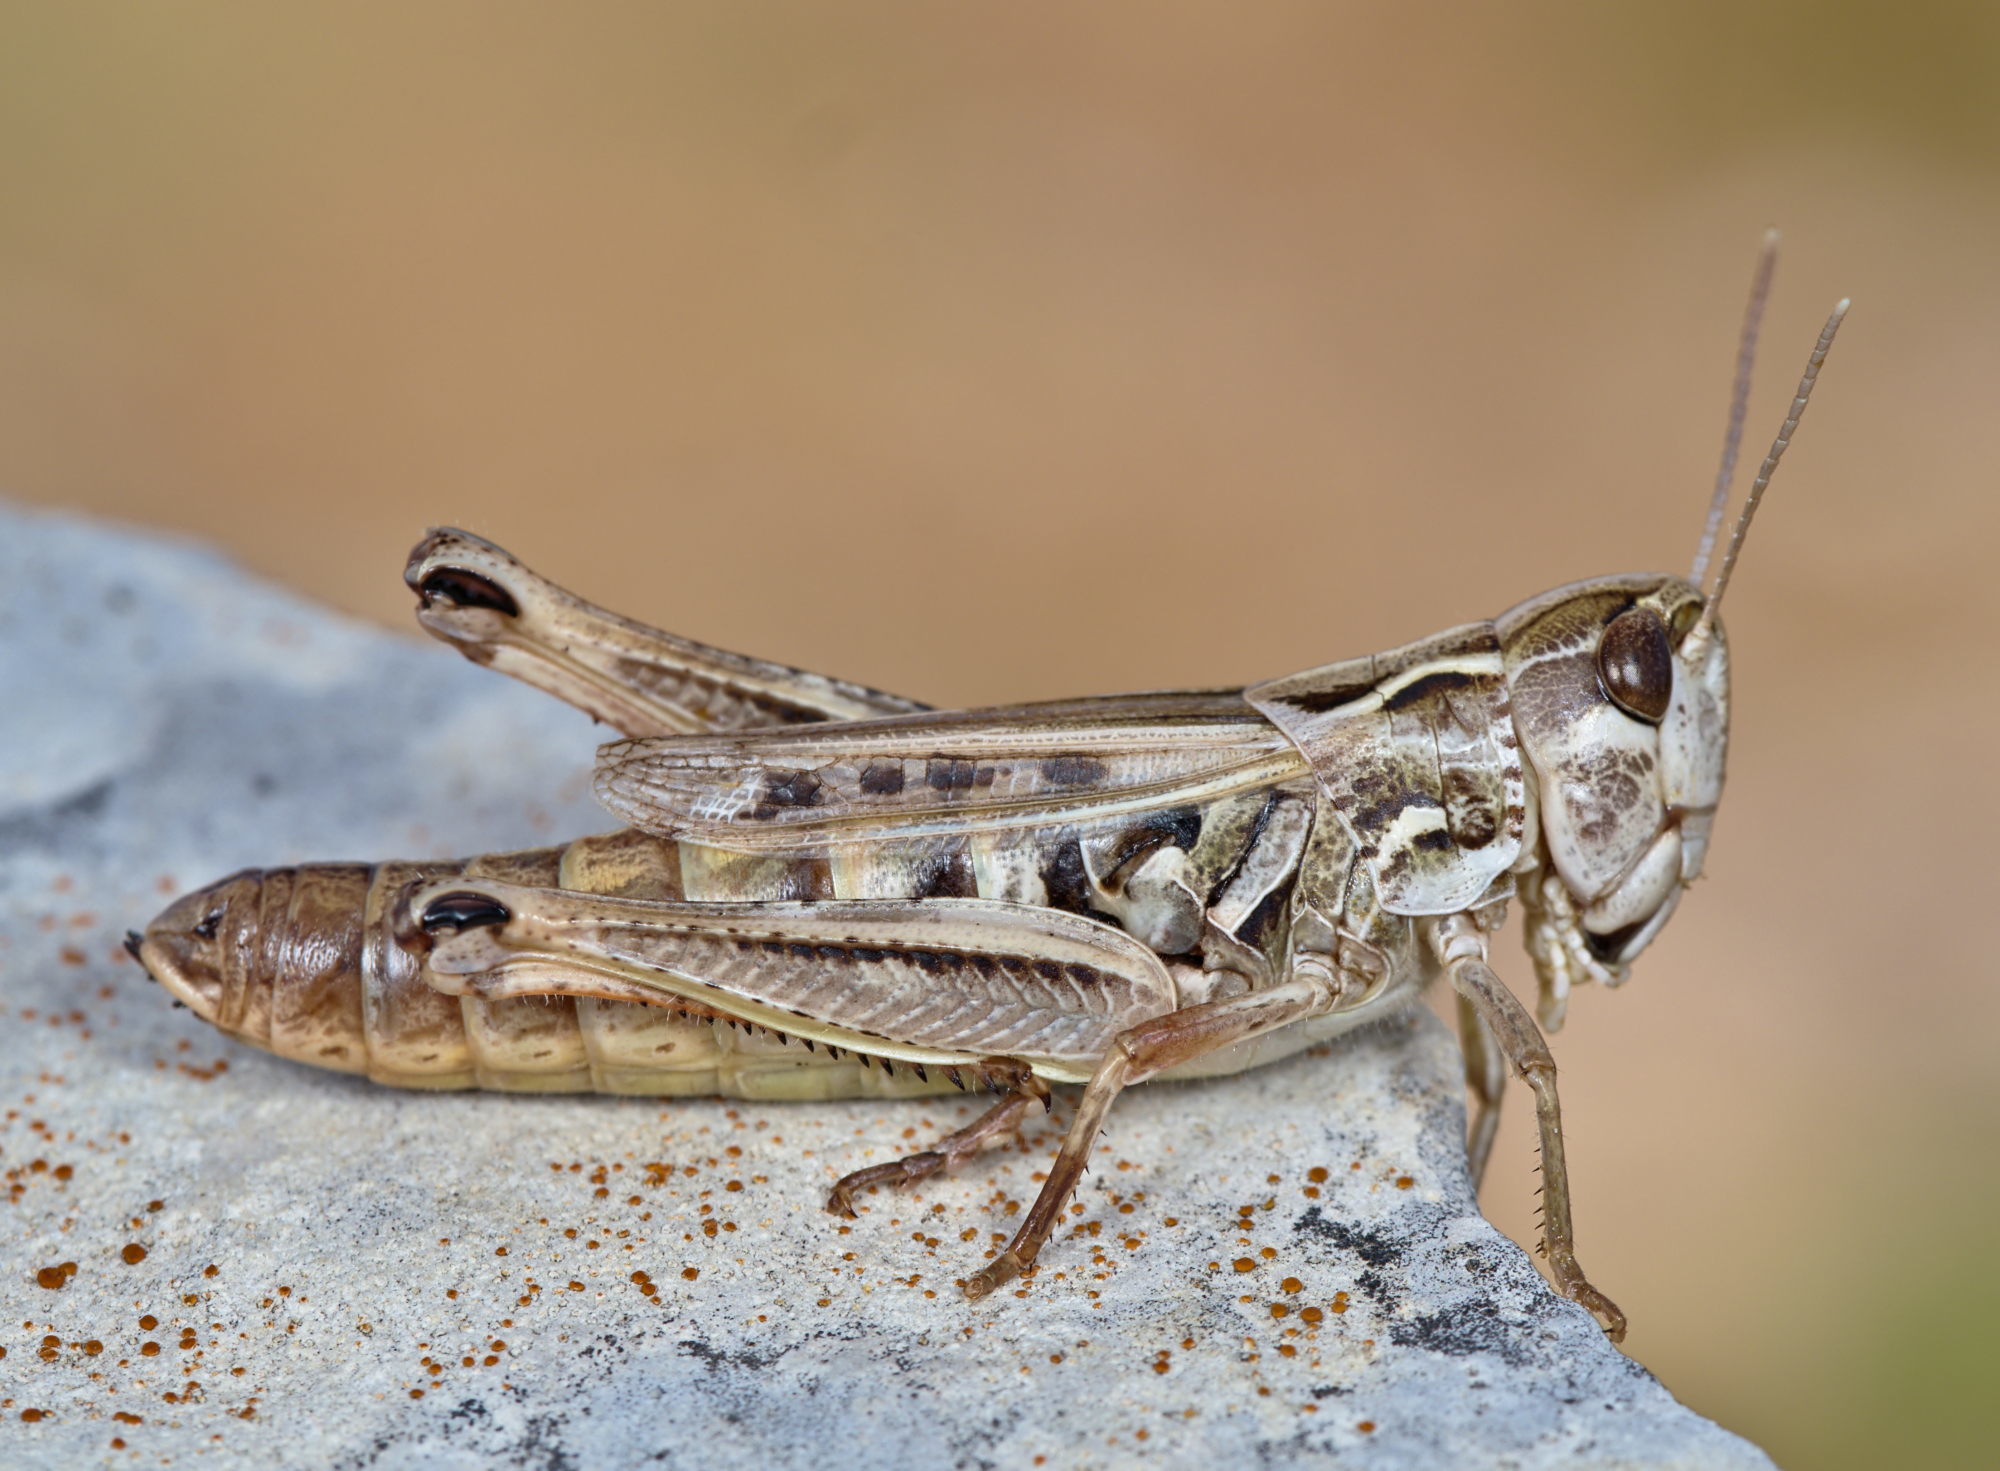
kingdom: Animalia
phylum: Arthropoda
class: Insecta
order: Orthoptera
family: Acrididae
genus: Stenobothrus
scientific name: Stenobothrus nigromaculatus
